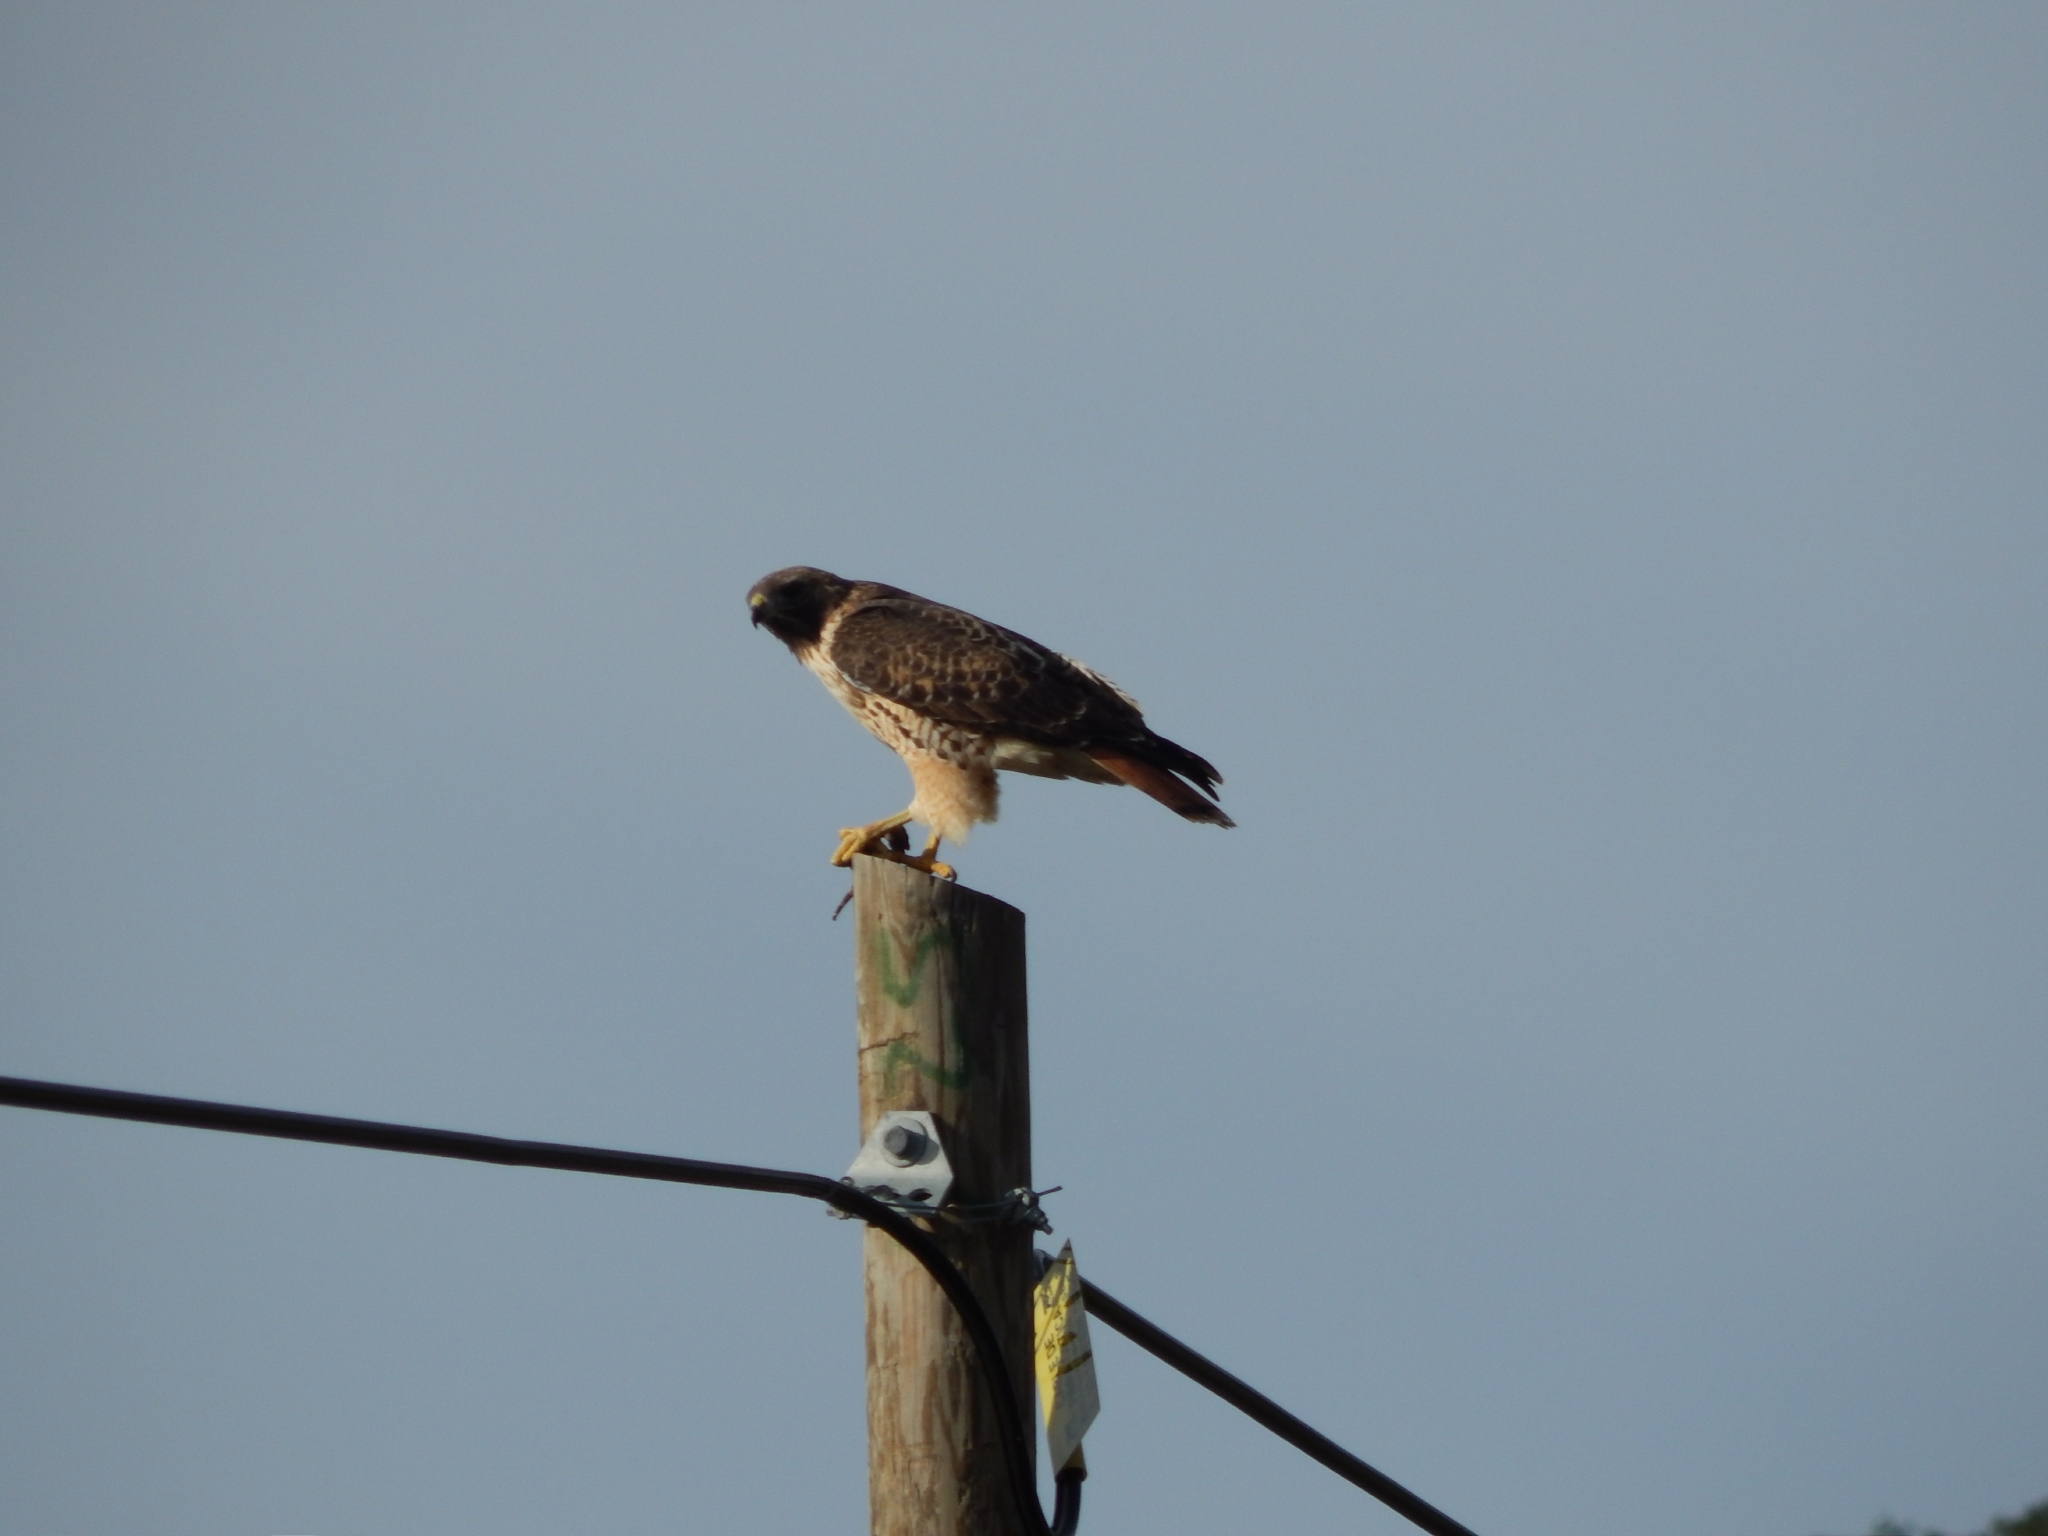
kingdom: Animalia
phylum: Chordata
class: Aves
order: Accipitriformes
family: Accipitridae
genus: Buteo
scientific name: Buteo jamaicensis
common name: Red-tailed hawk
